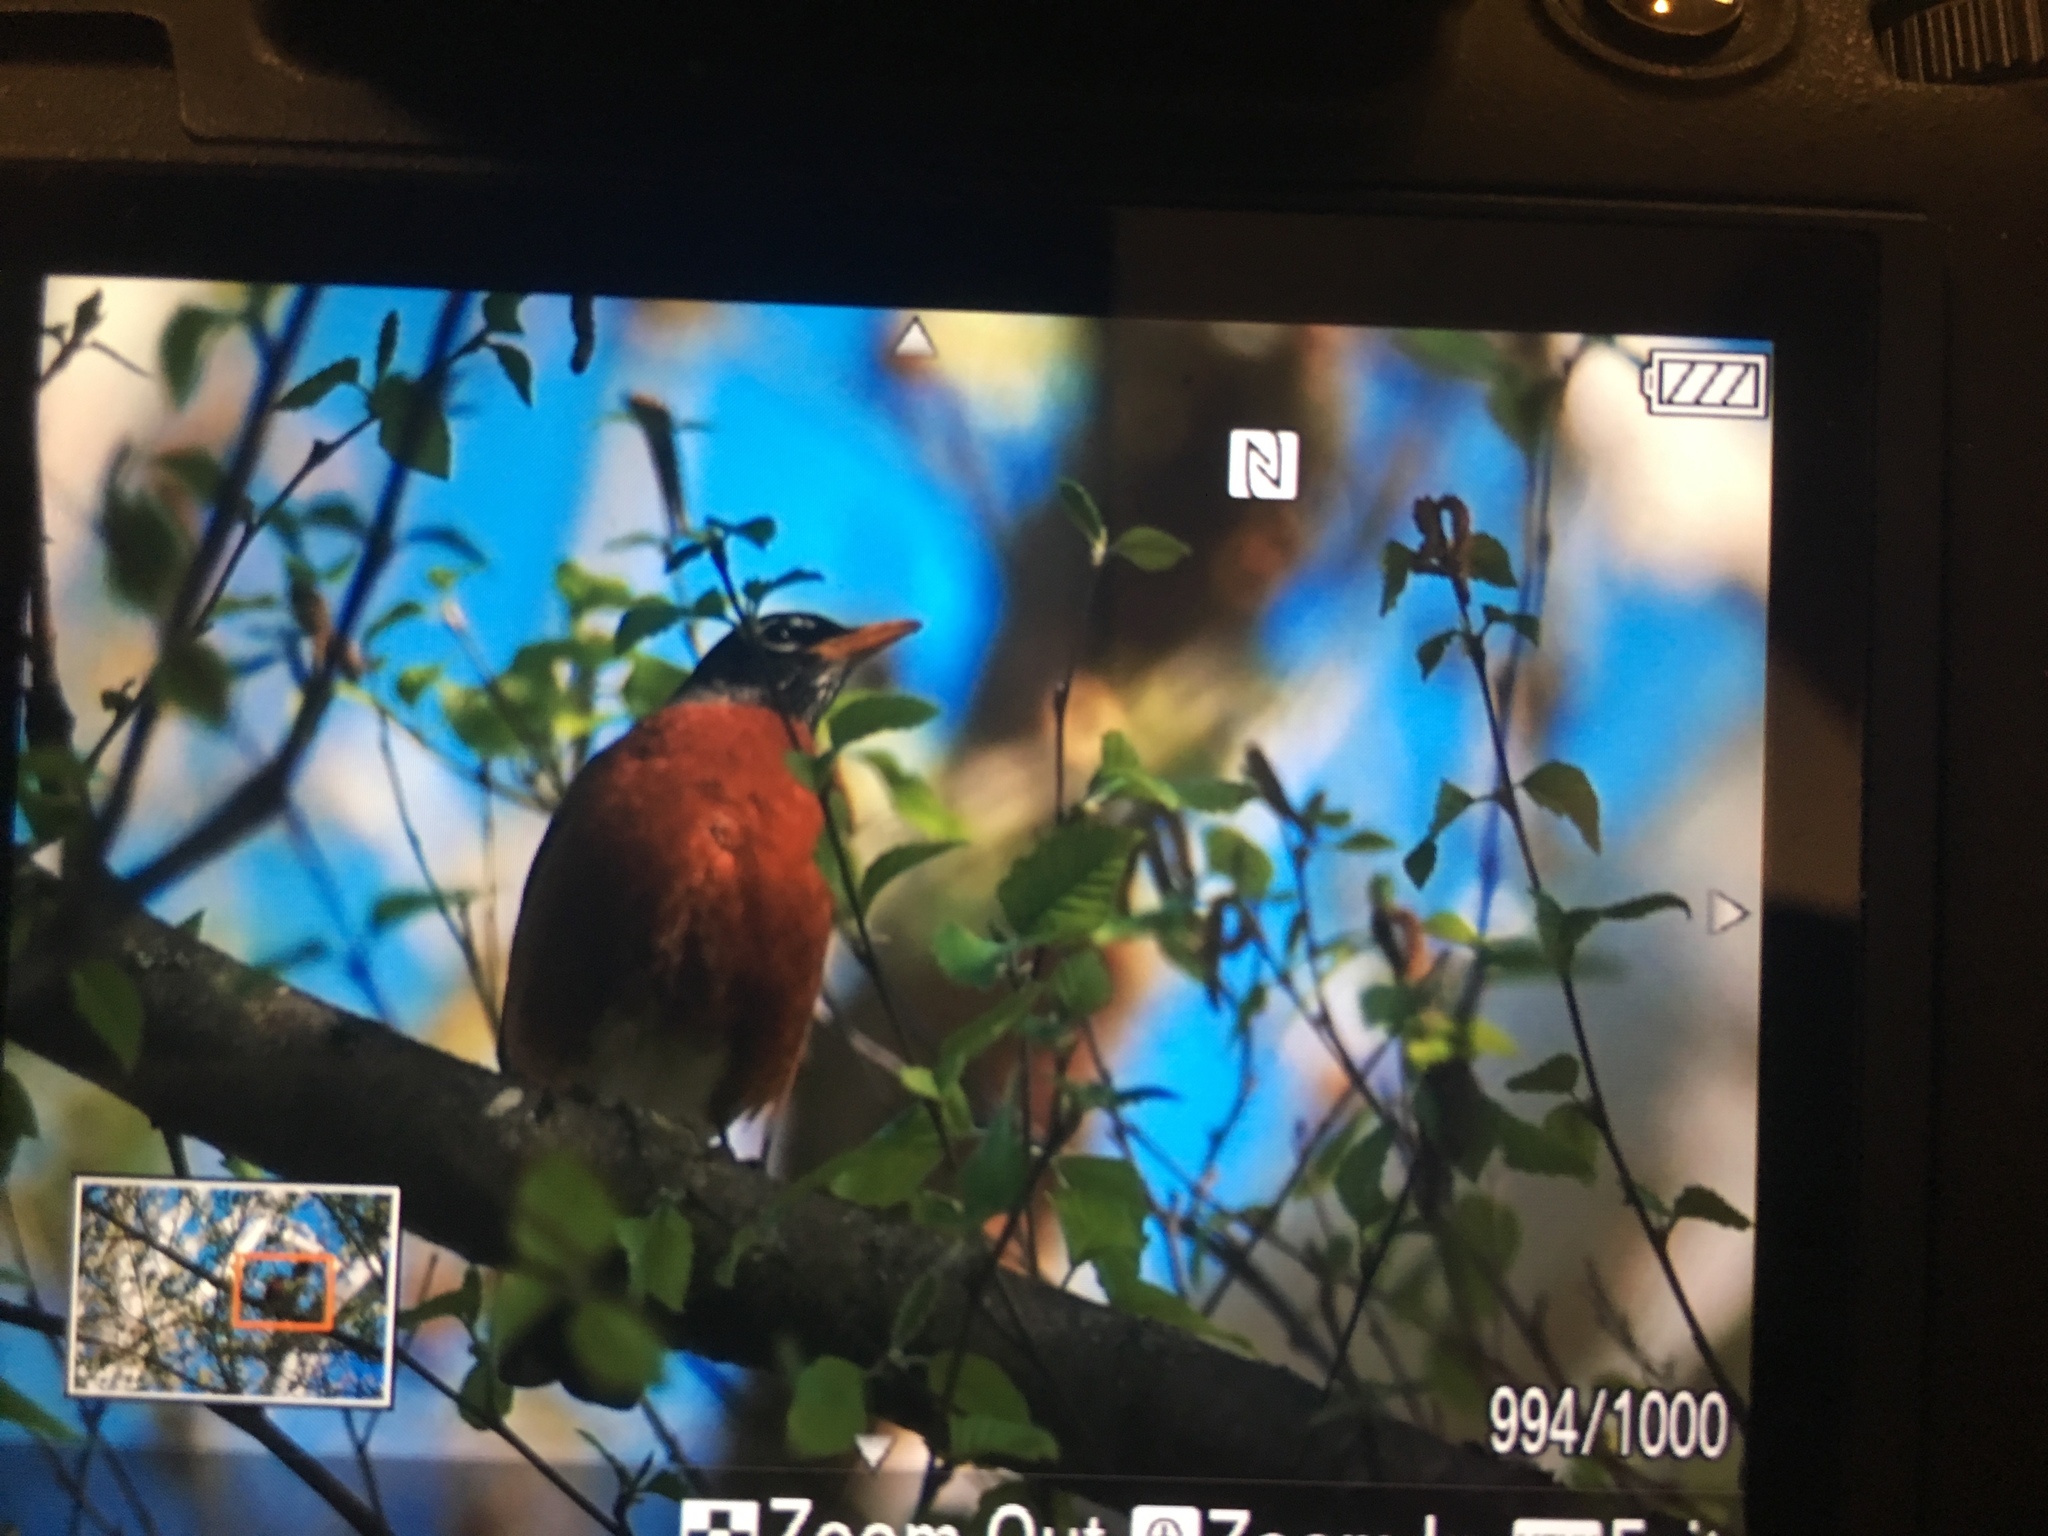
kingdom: Animalia
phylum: Chordata
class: Aves
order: Passeriformes
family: Turdidae
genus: Turdus
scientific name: Turdus migratorius
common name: American robin
